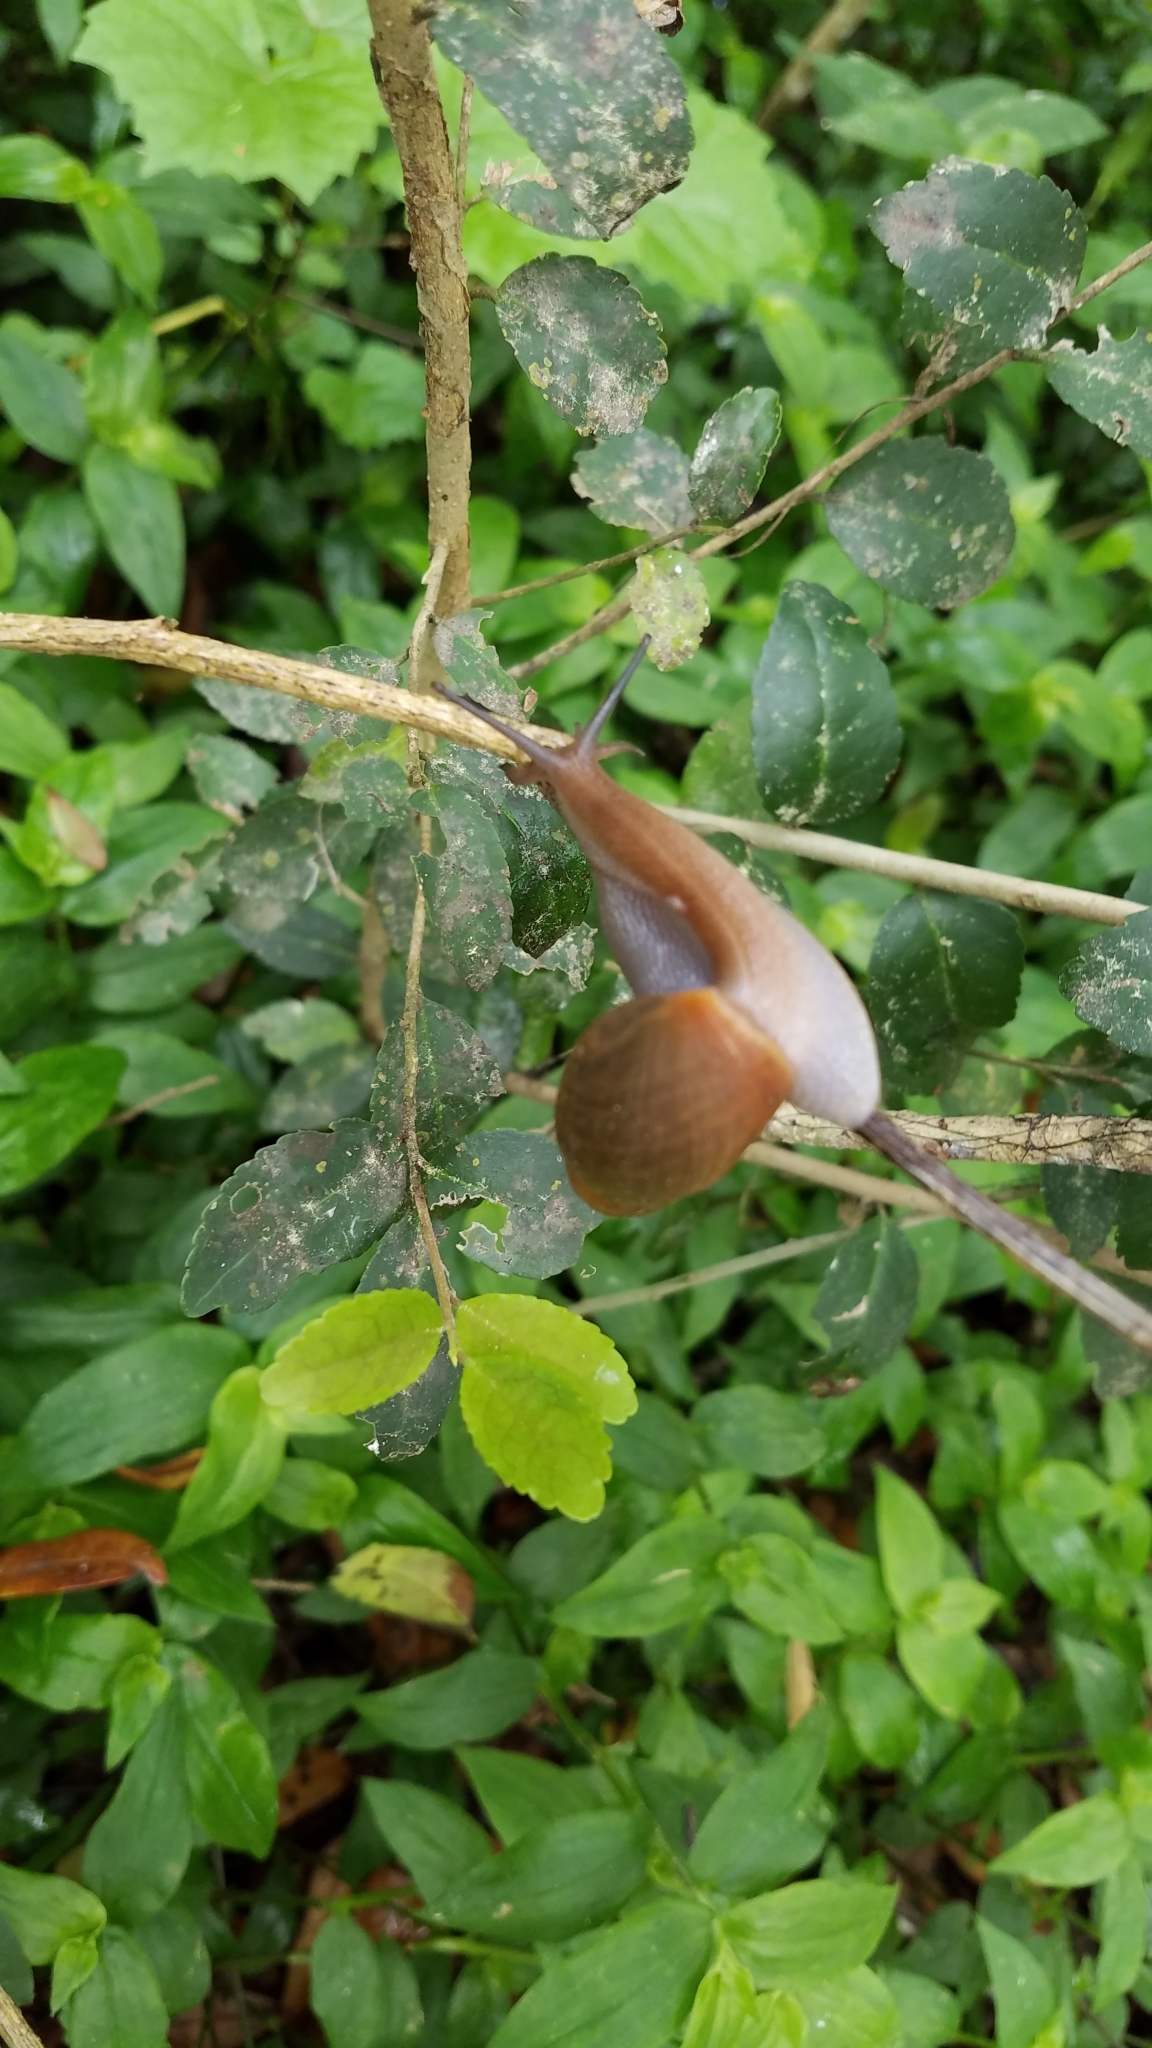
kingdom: Animalia
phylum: Mollusca
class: Gastropoda
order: Stylommatophora
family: Spiraxidae
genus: Euglandina
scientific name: Euglandina rosea
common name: Rosy wolfsnail
